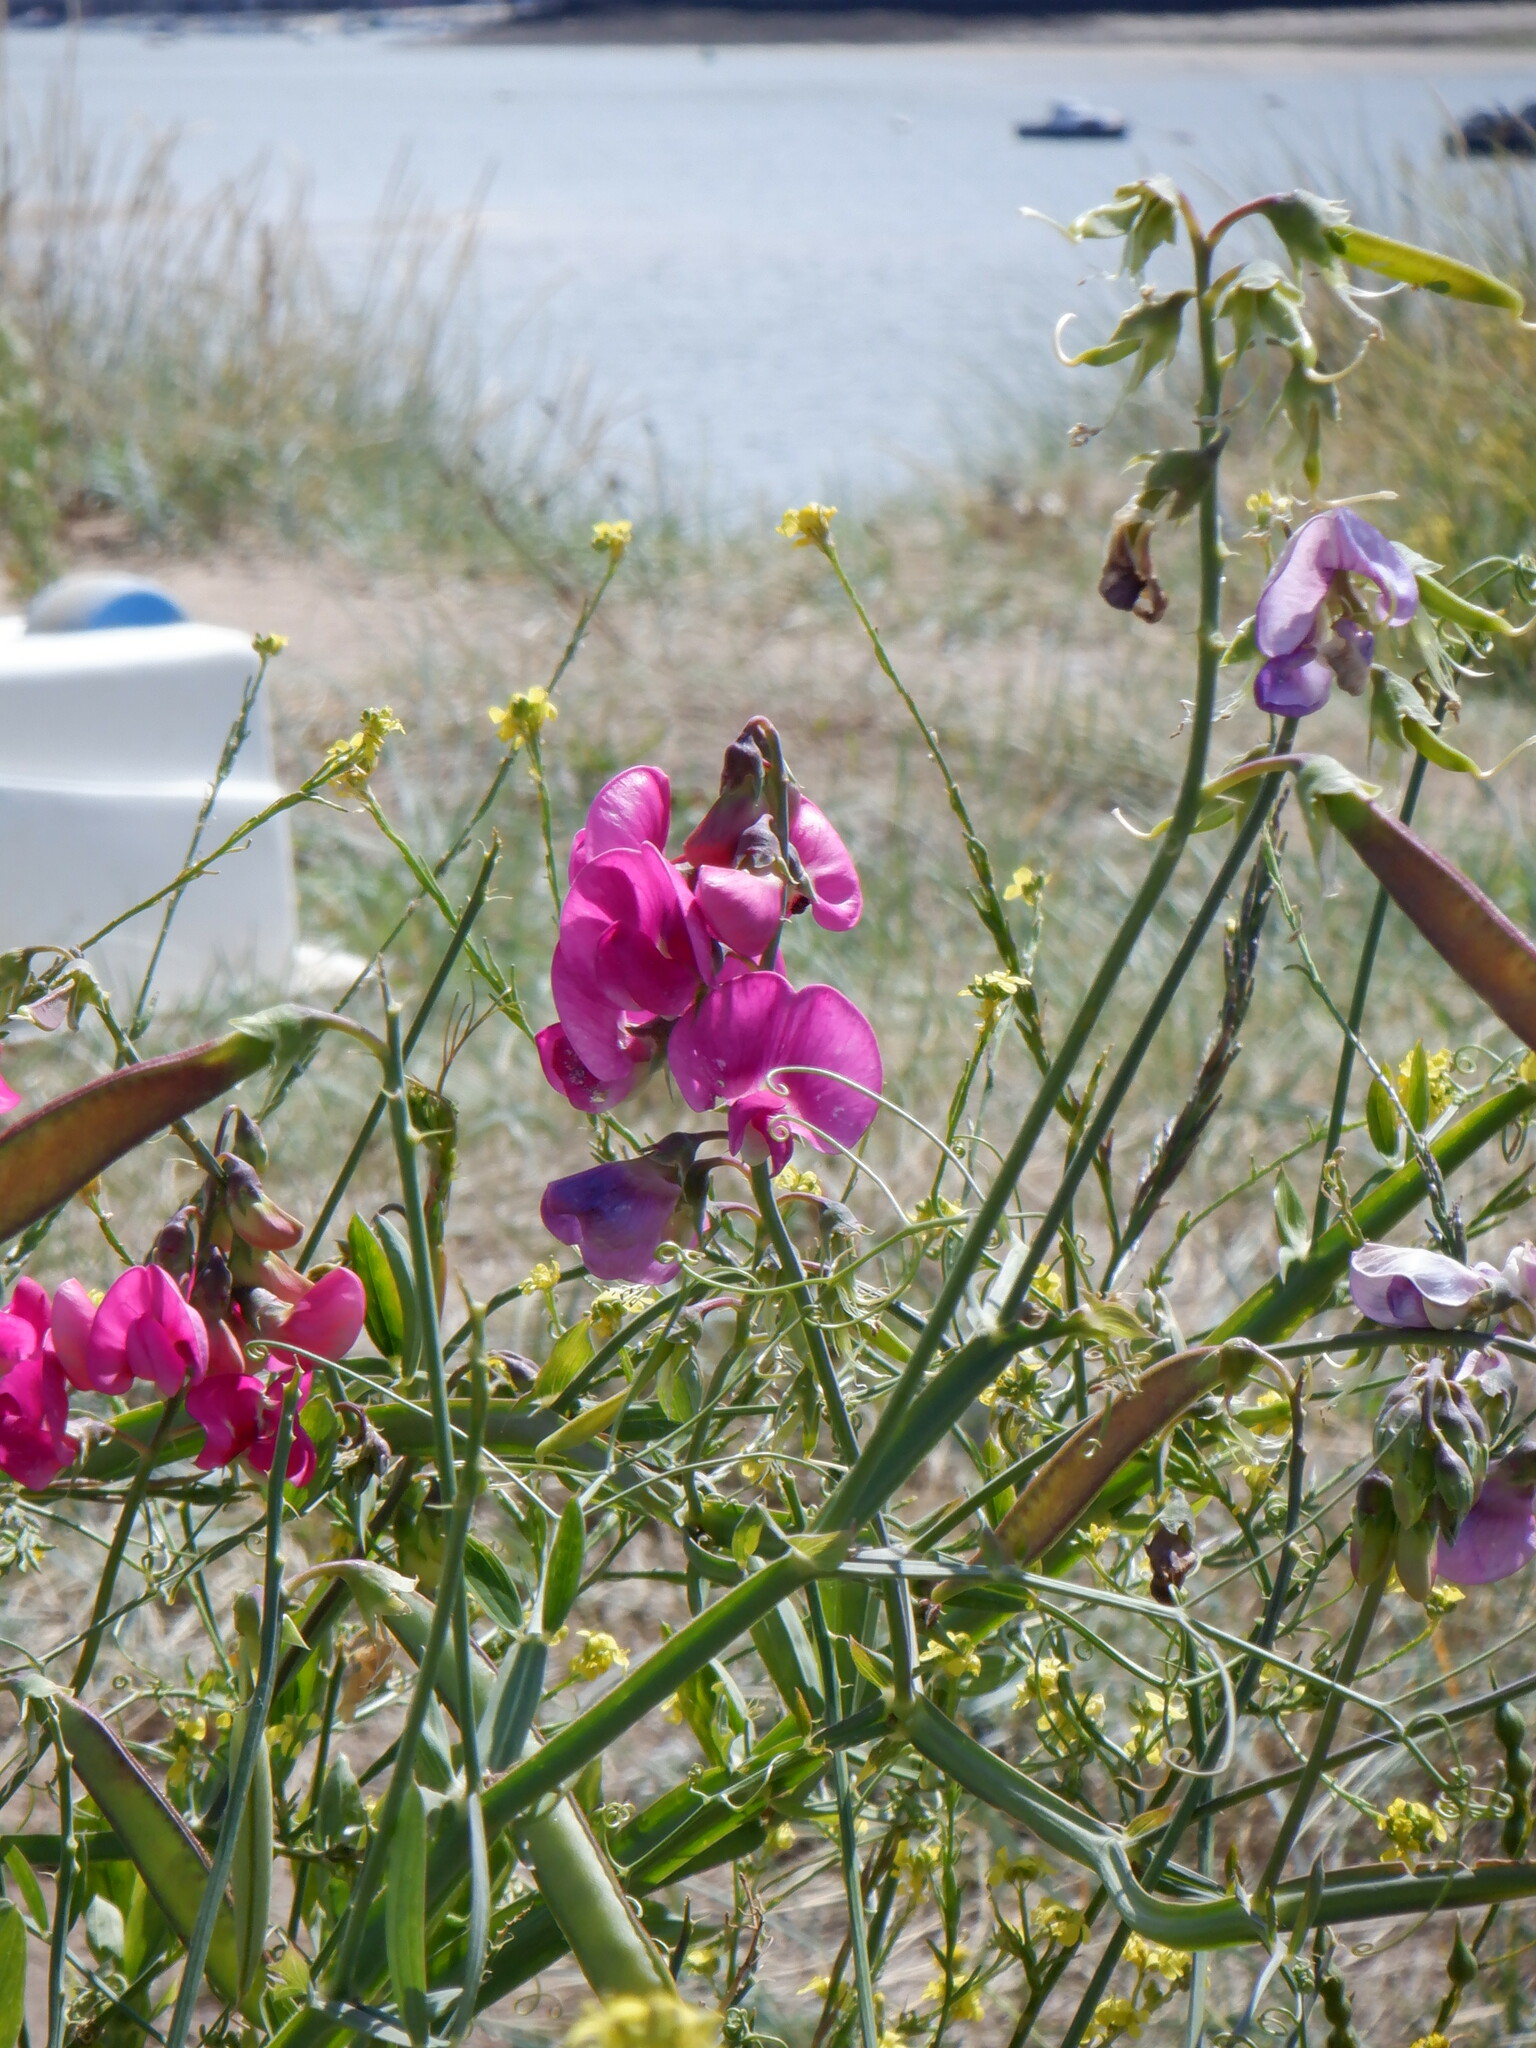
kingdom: Plantae
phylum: Tracheophyta
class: Magnoliopsida
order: Fabales
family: Fabaceae
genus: Lathyrus
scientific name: Lathyrus latifolius
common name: Perennial pea
